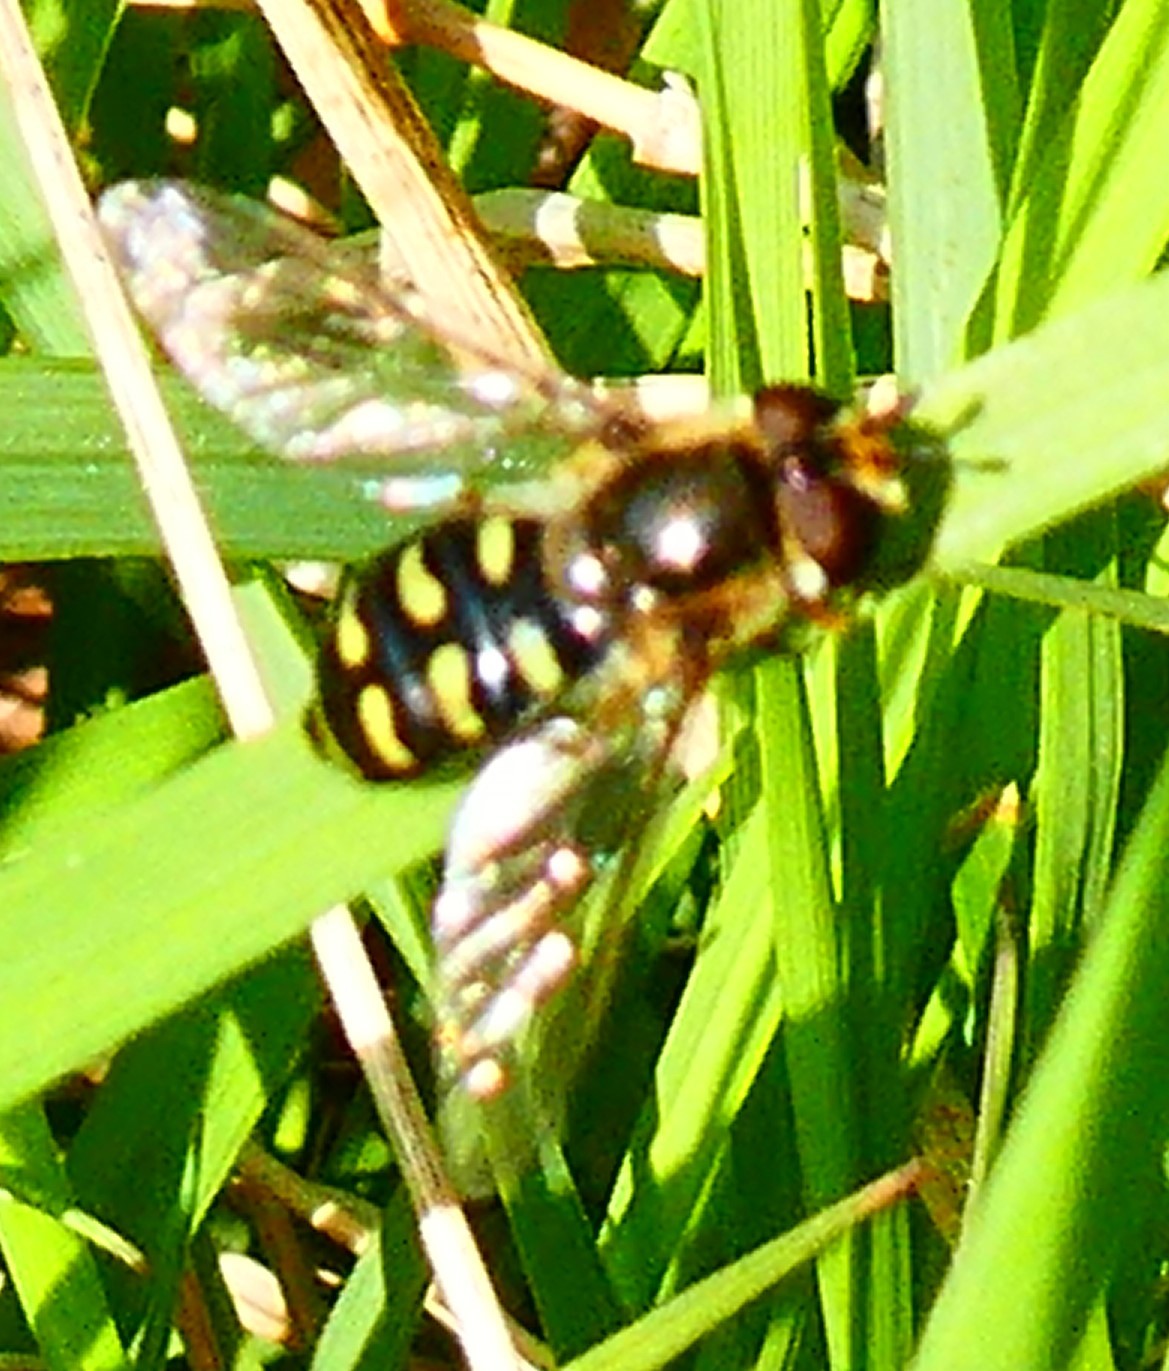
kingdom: Animalia
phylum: Arthropoda
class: Insecta
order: Diptera
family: Syrphidae
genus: Eupeodes
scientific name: Eupeodes luniger
